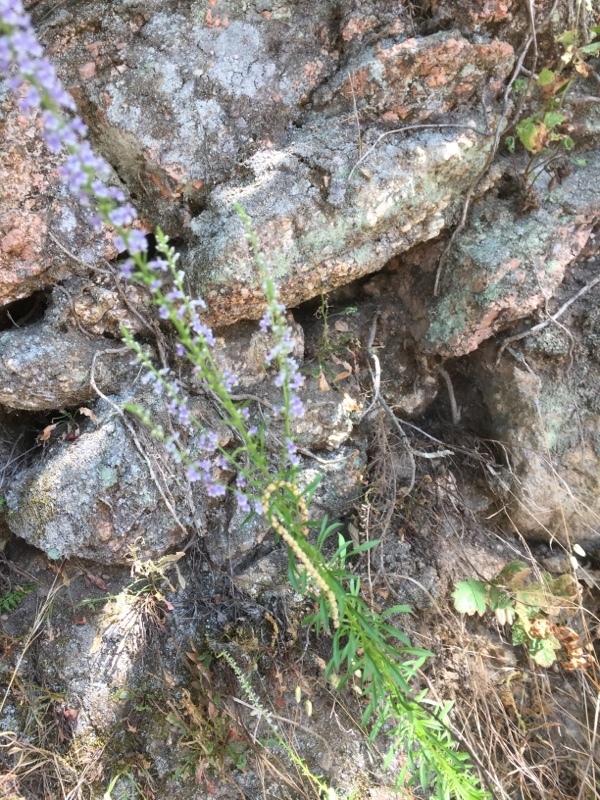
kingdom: Plantae
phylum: Tracheophyta
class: Magnoliopsida
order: Lamiales
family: Plantaginaceae
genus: Anarrhinum
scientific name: Anarrhinum bellidifolium
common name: Daisy-leaved toadflax
